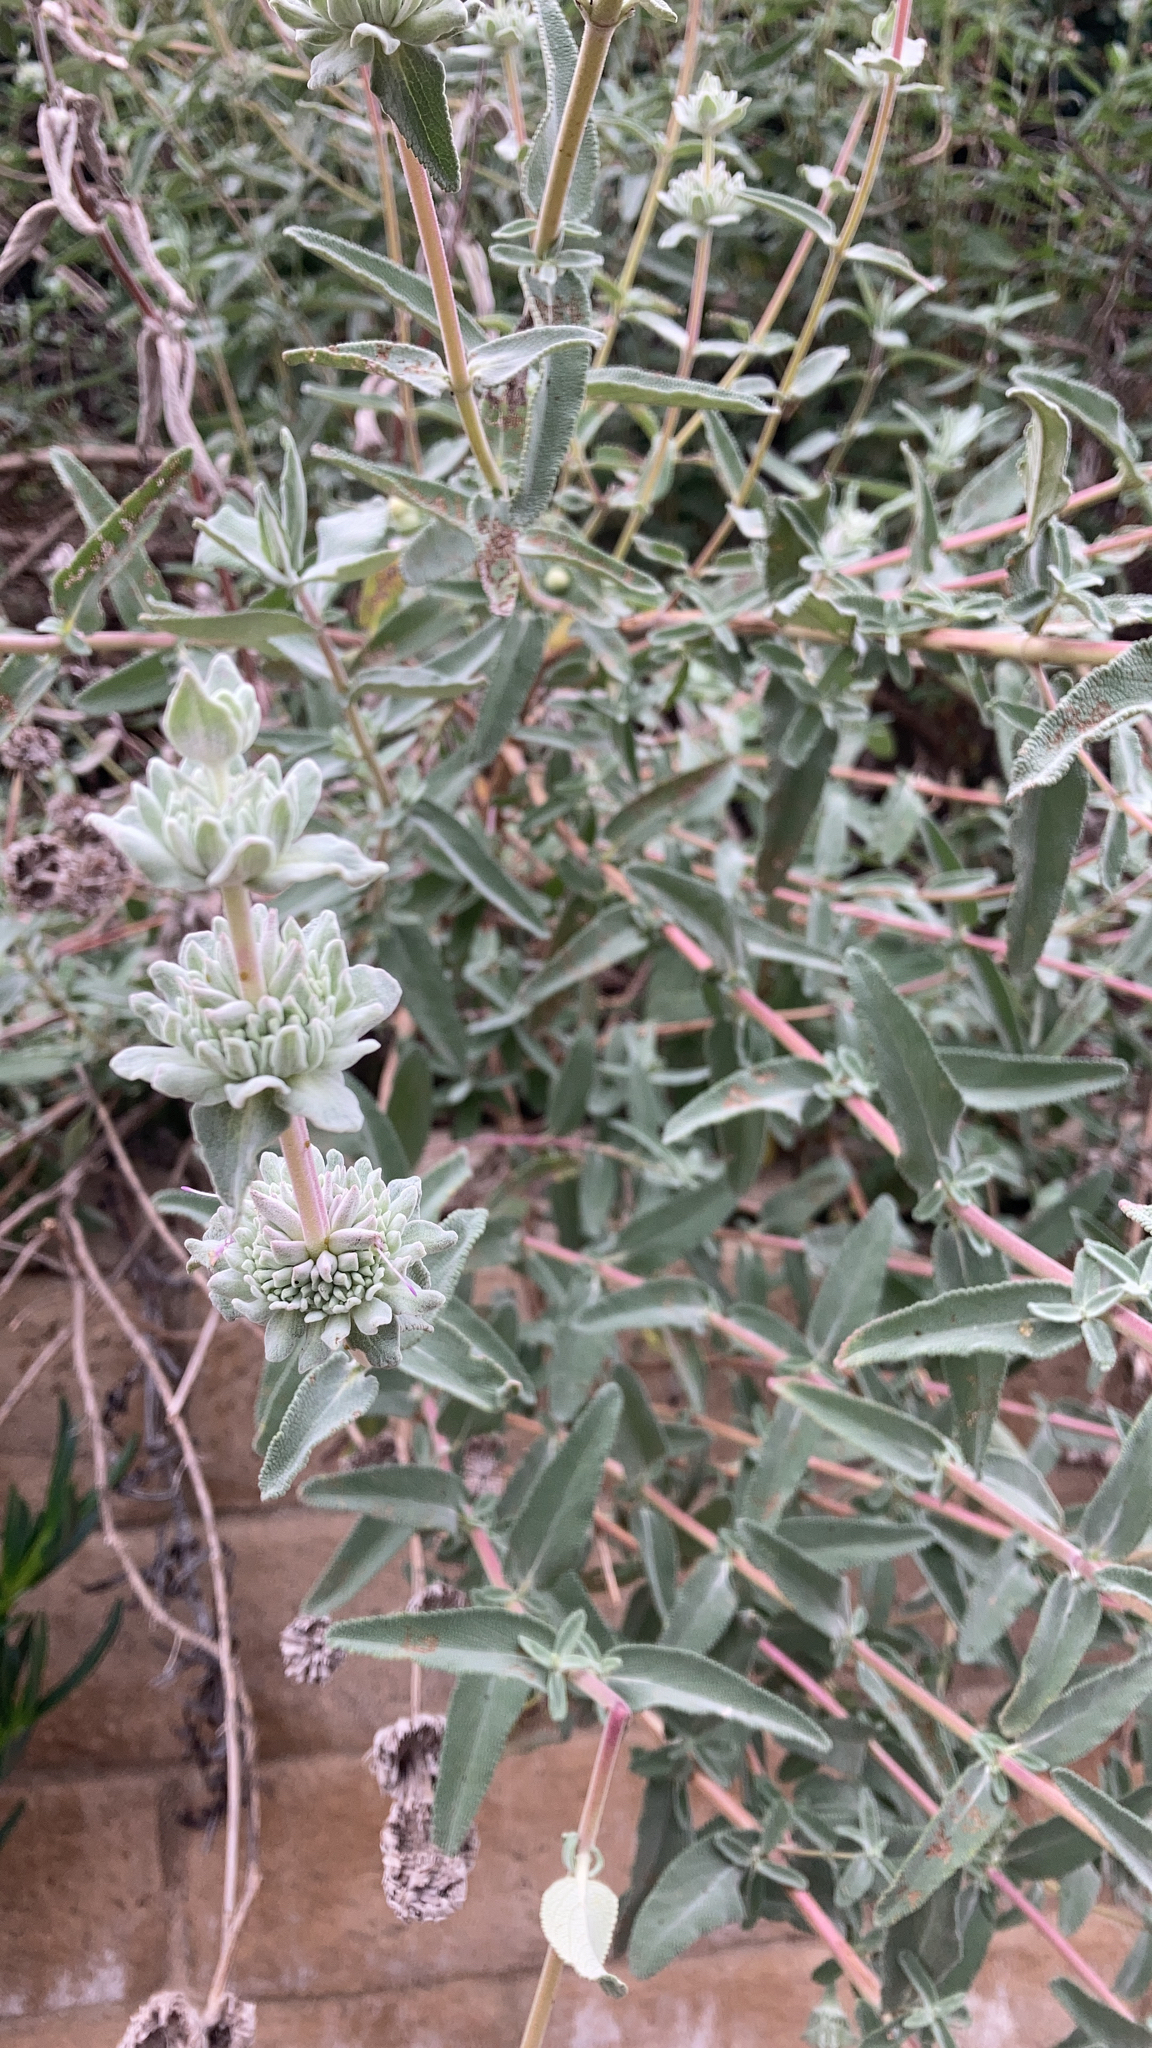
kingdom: Plantae
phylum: Tracheophyta
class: Magnoliopsida
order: Lamiales
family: Lamiaceae
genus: Salvia
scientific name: Salvia leucophylla
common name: Purple sage
